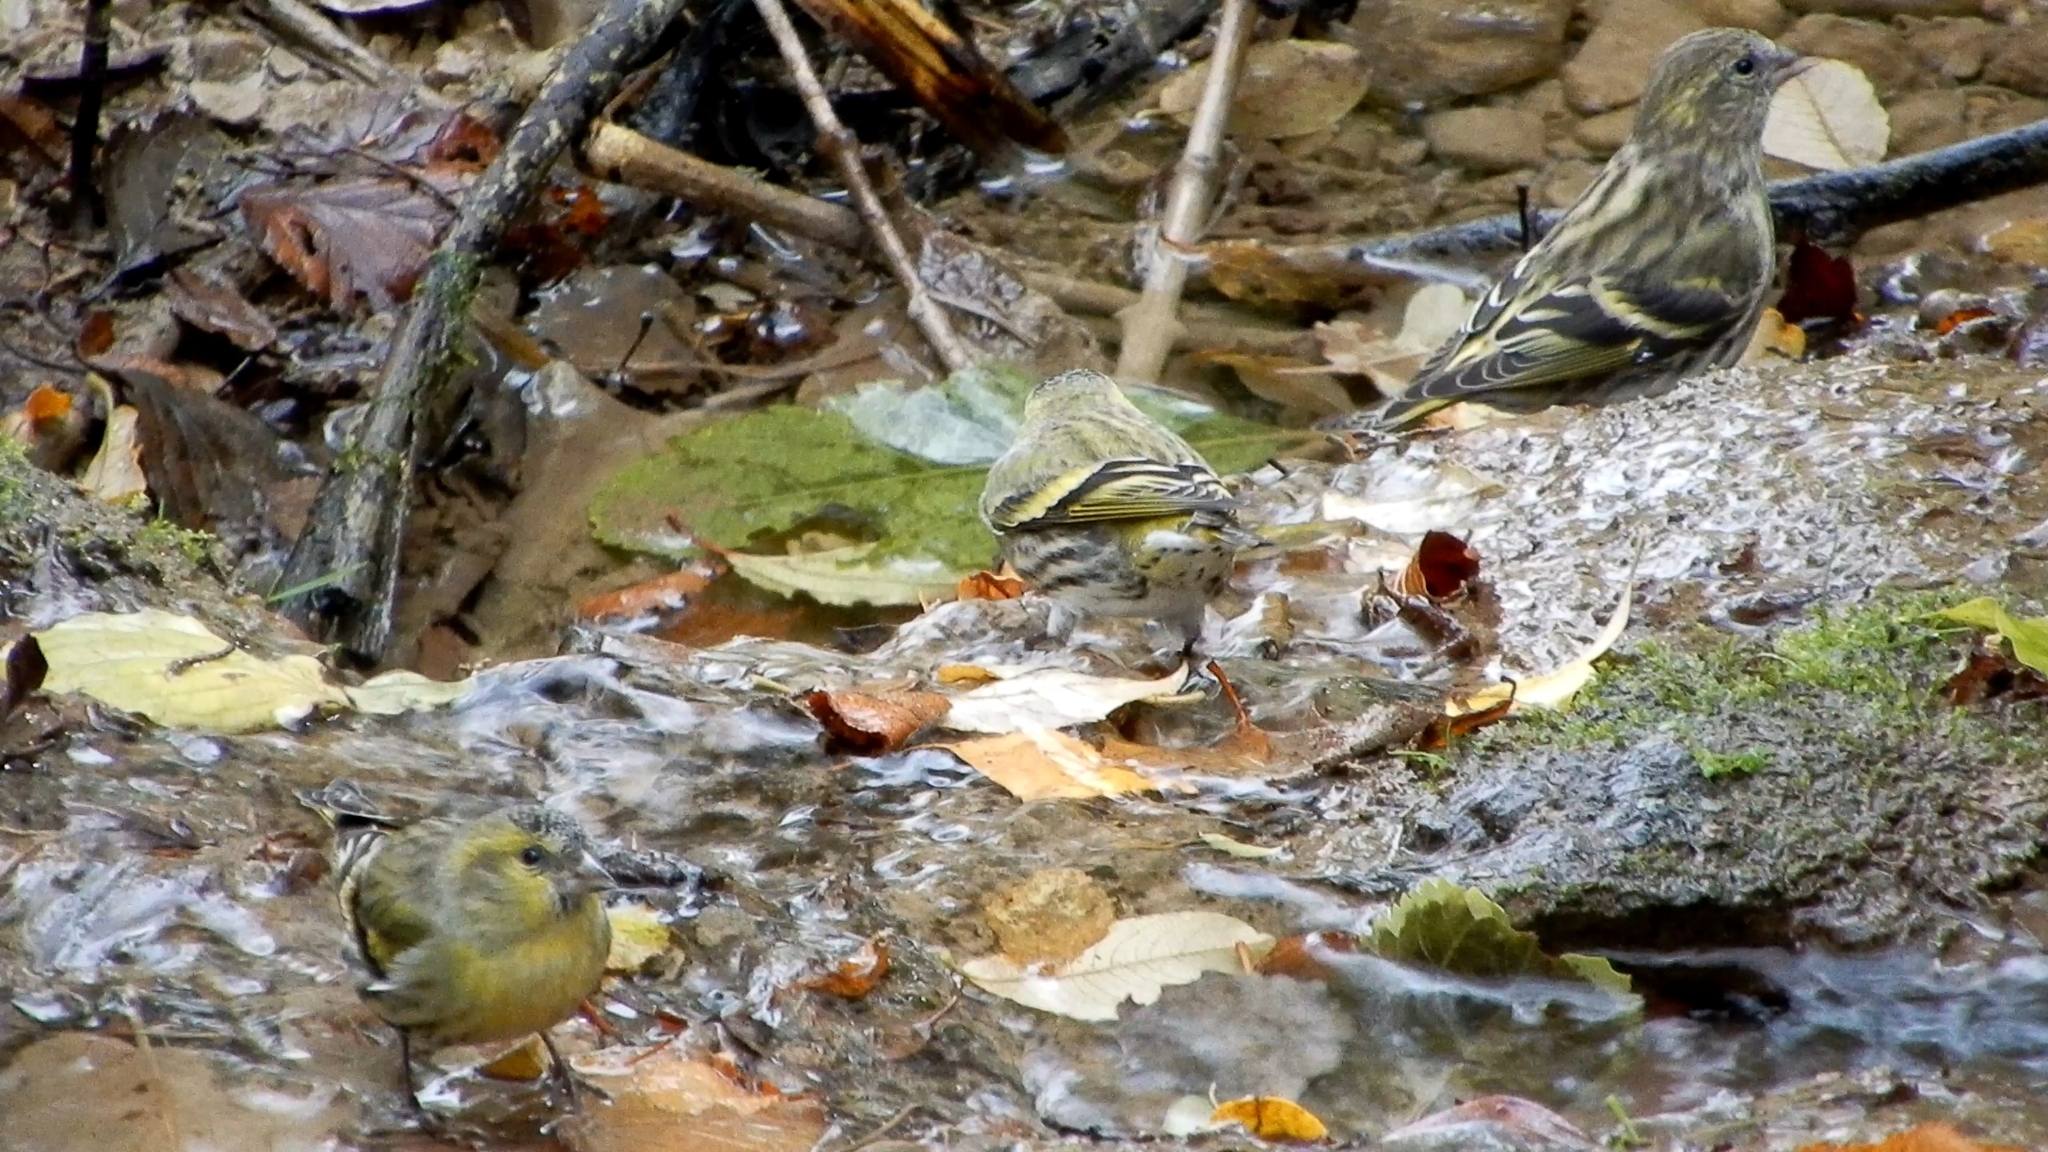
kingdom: Animalia
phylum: Chordata
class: Aves
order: Passeriformes
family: Fringillidae
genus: Spinus
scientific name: Spinus spinus
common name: Eurasian siskin
